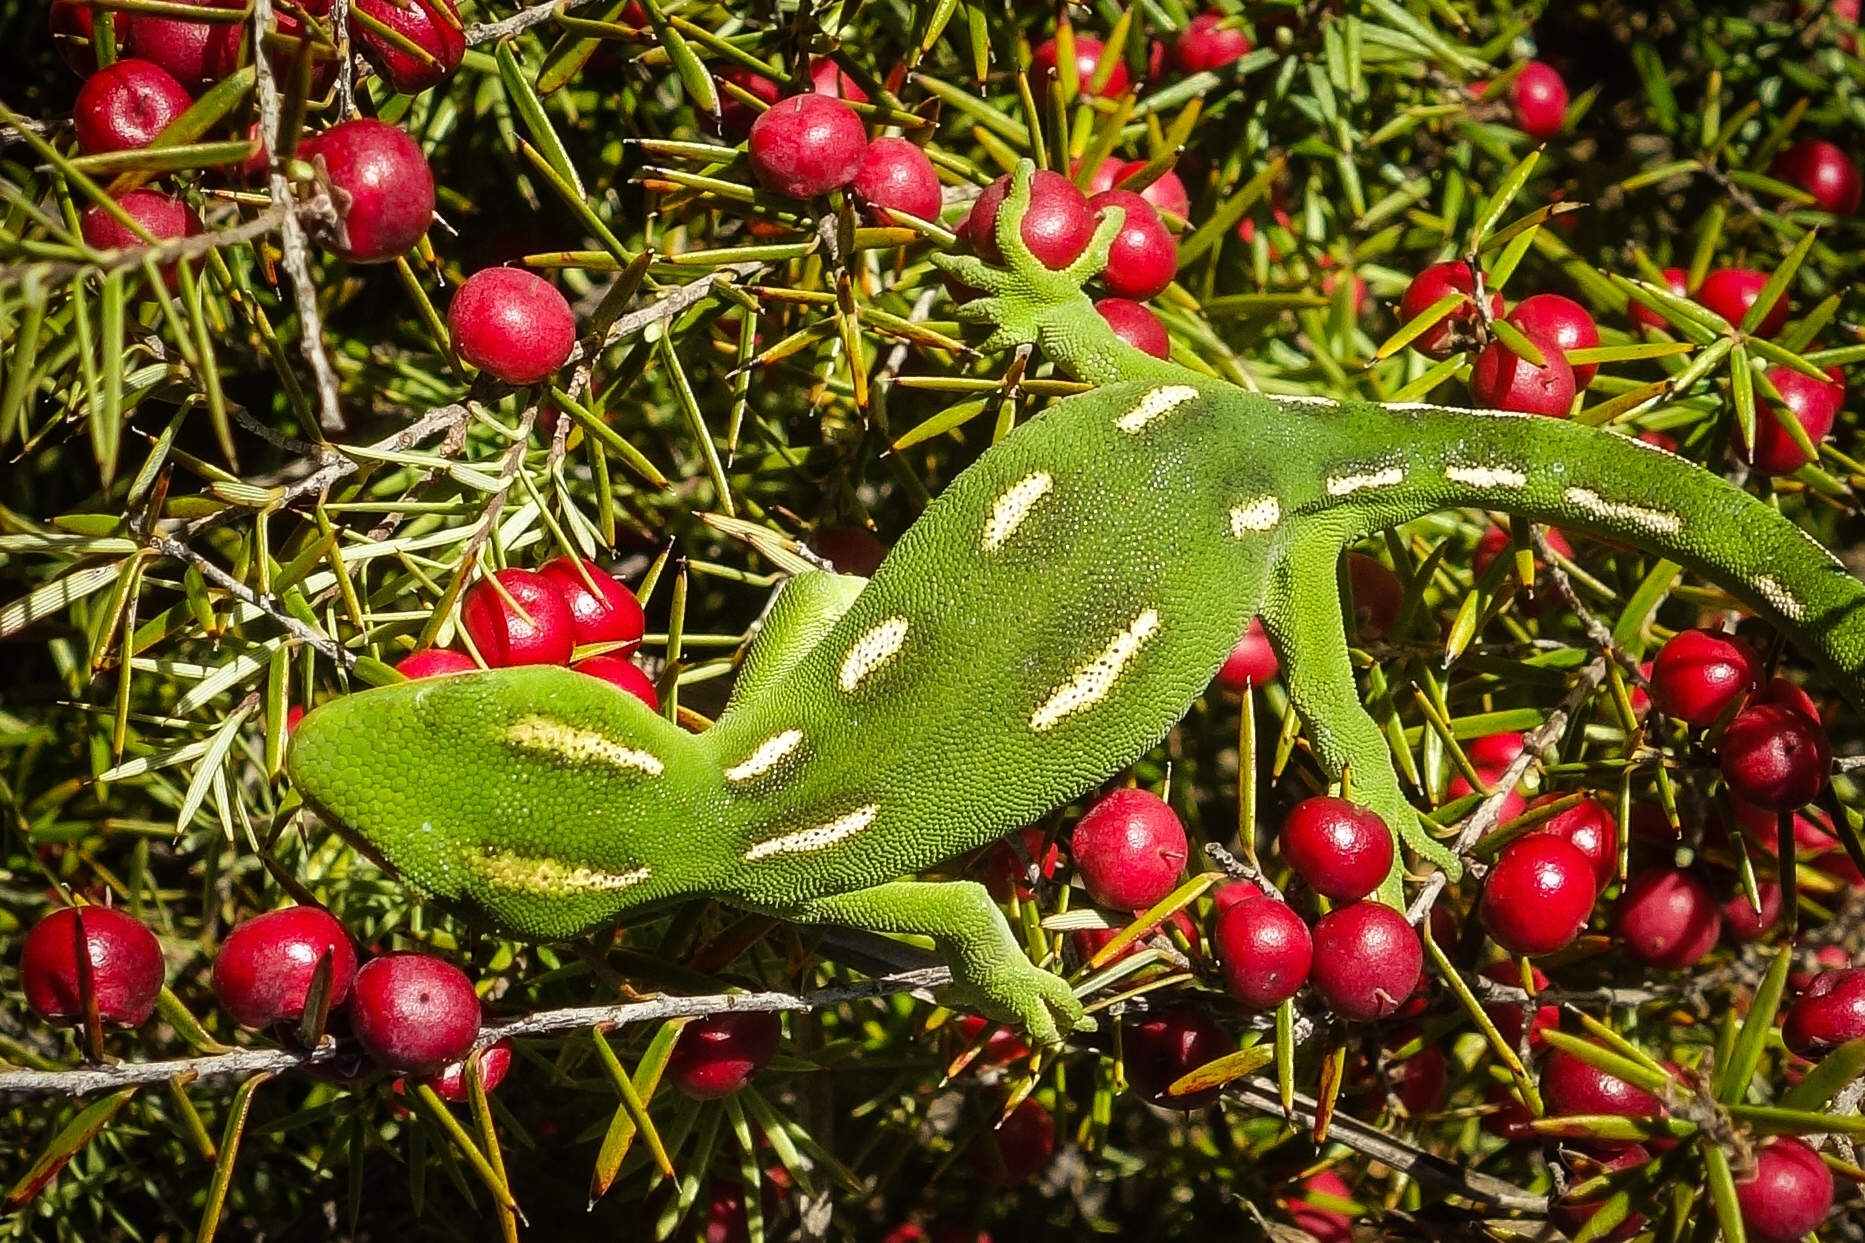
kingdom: Animalia
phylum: Chordata
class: Squamata
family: Diplodactylidae
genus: Naultinus
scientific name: Naultinus flavirictus
